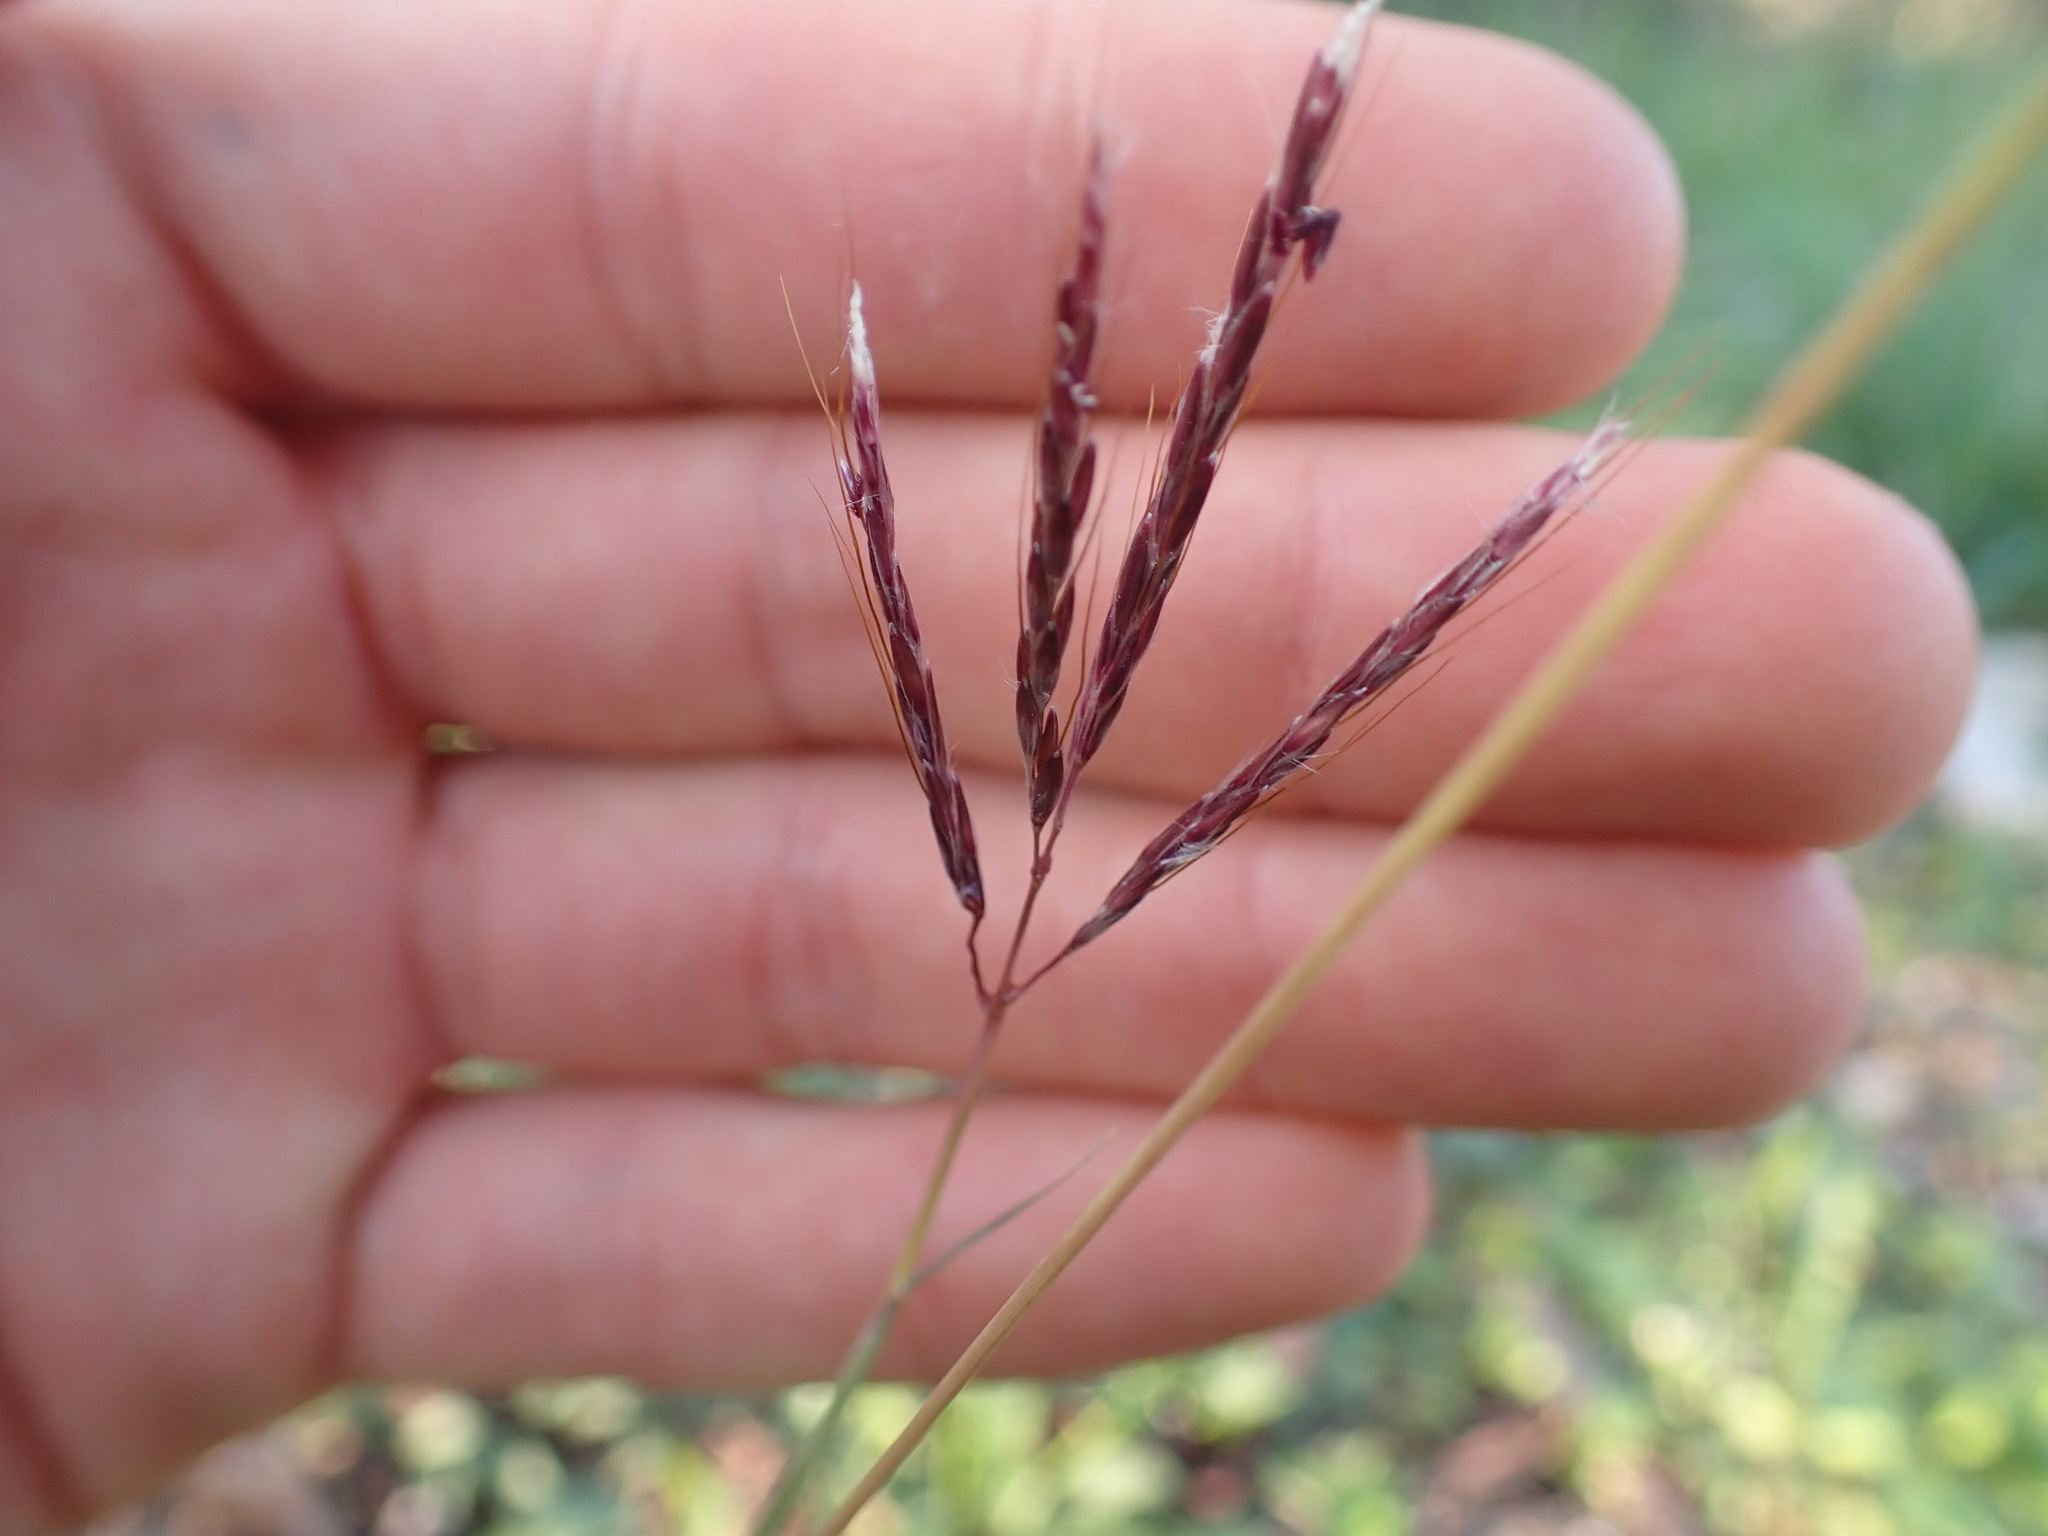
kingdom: Plantae
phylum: Tracheophyta
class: Liliopsida
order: Poales
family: Poaceae
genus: Bothriochloa
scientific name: Bothriochloa ischaemum
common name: Yellow bluestem
